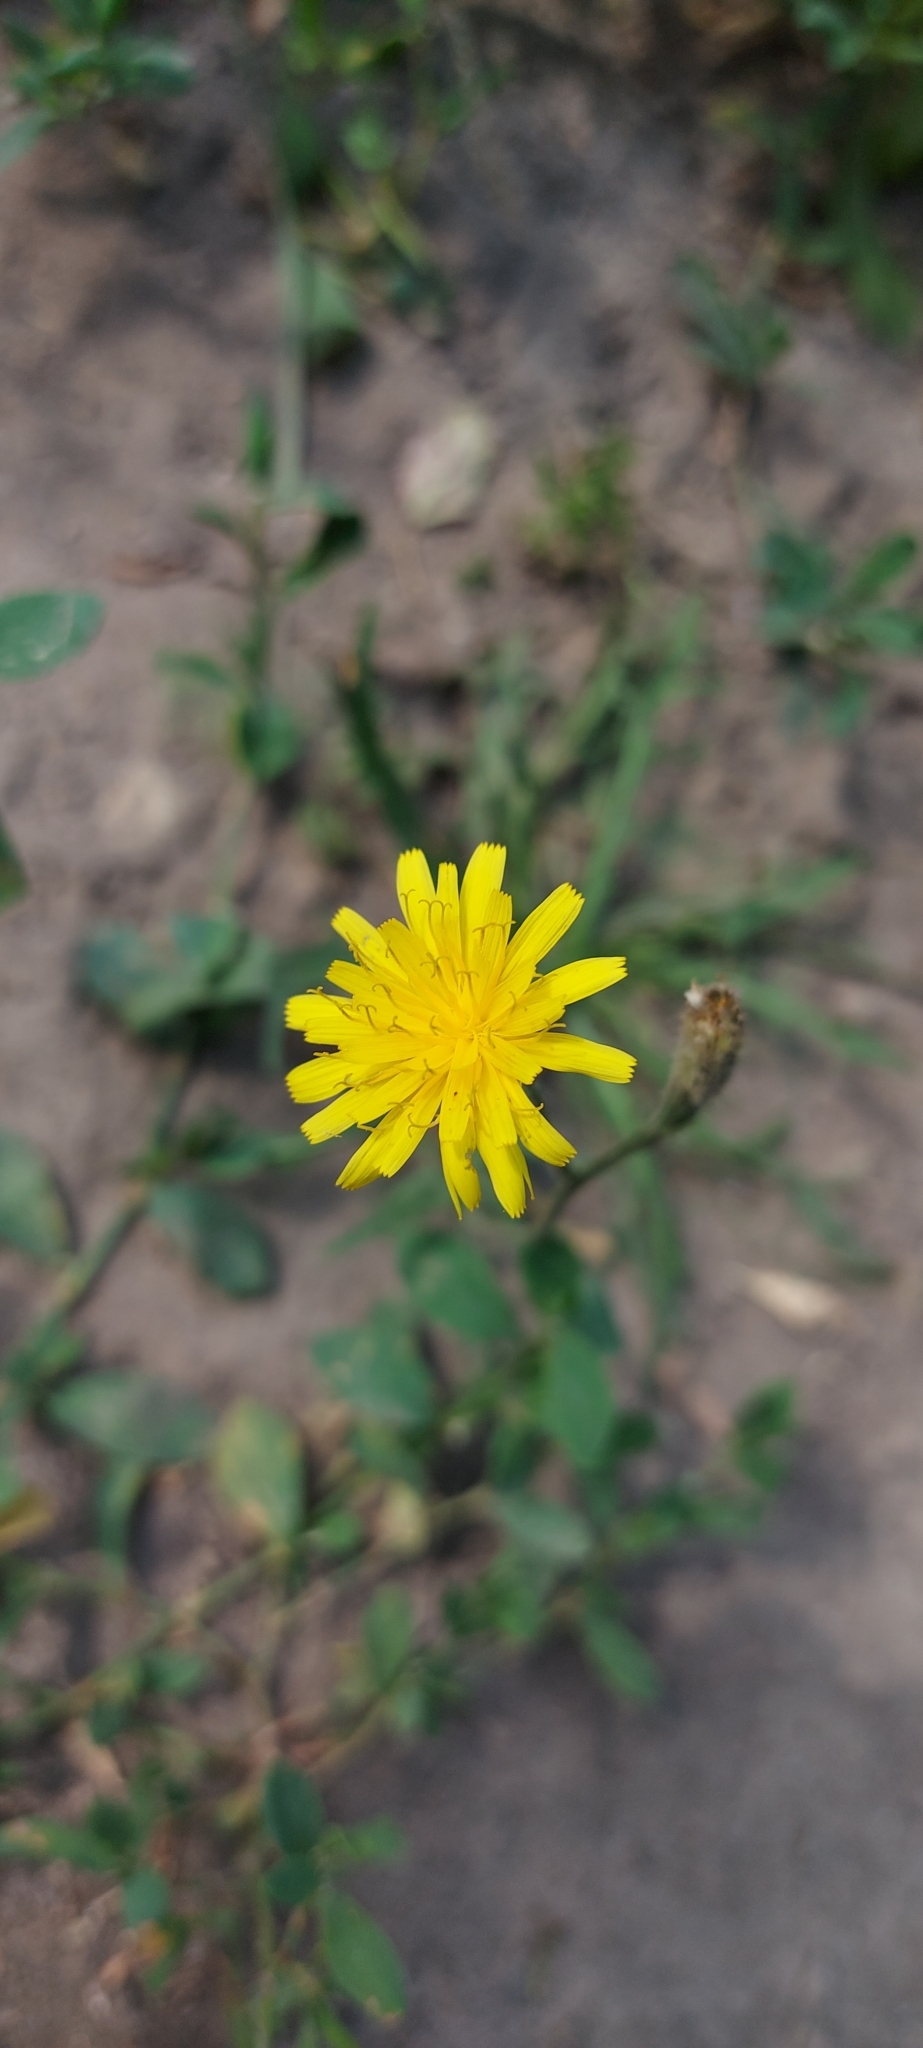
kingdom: Plantae
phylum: Tracheophyta
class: Magnoliopsida
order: Asterales
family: Asteraceae
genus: Scorzoneroides
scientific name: Scorzoneroides autumnalis
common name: Autumn hawkbit
